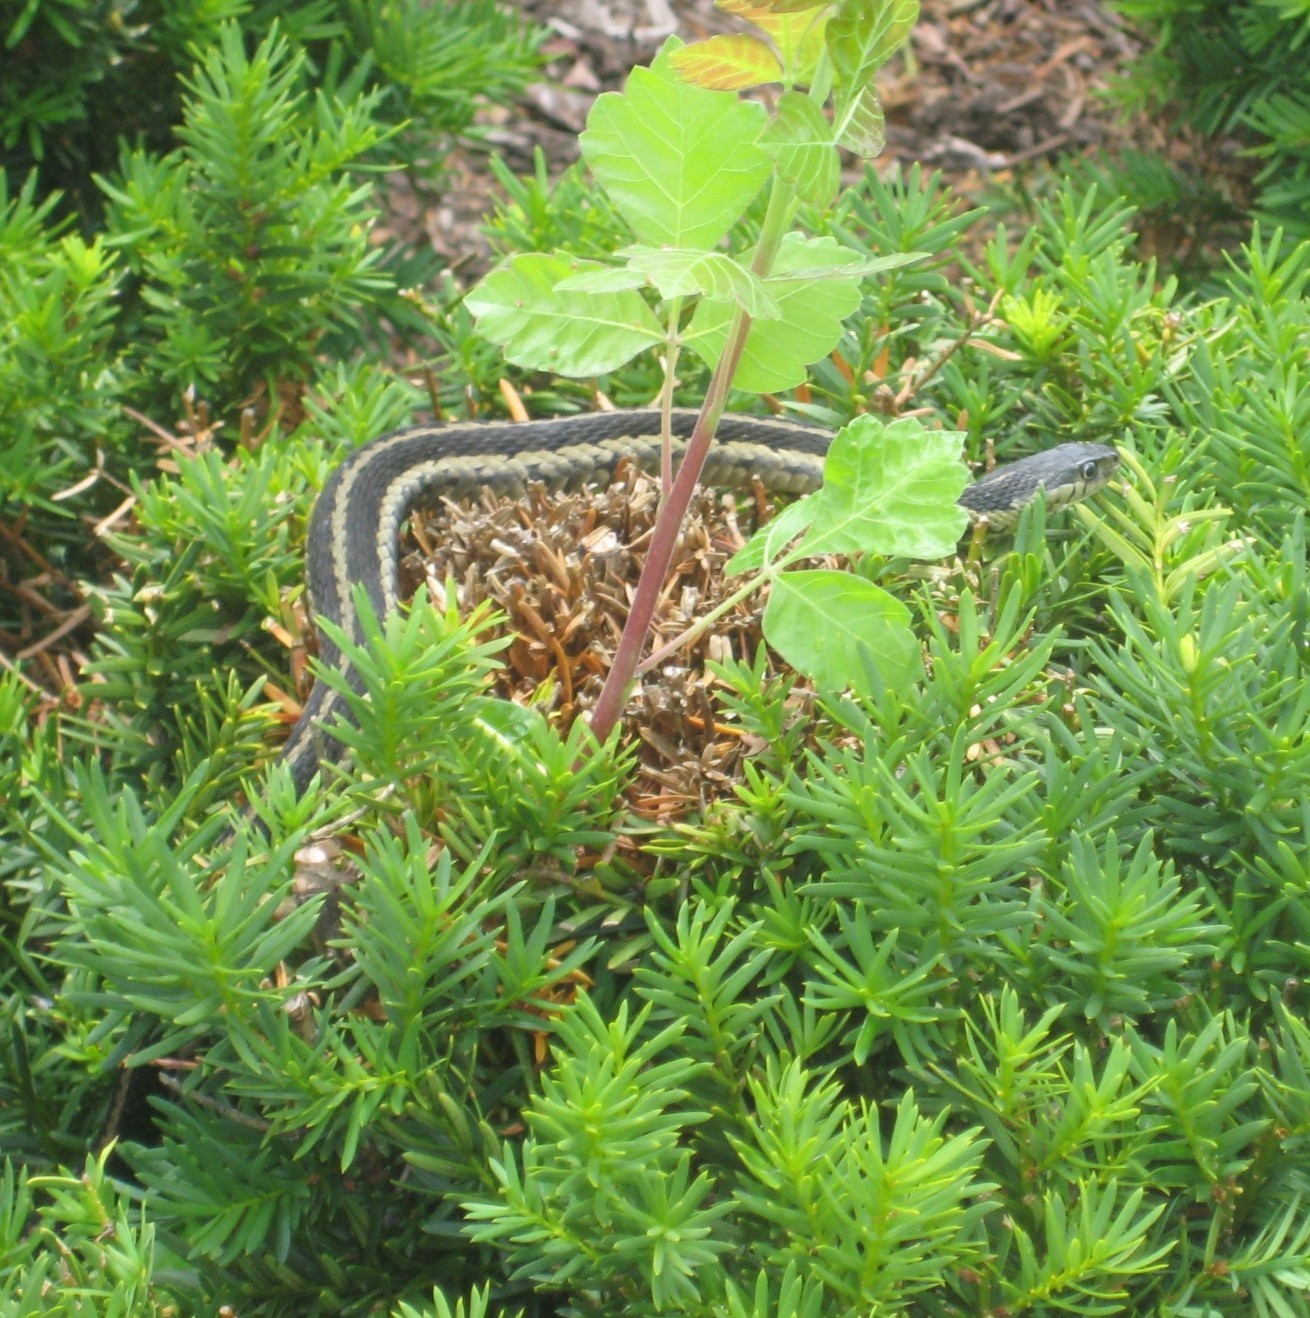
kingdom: Animalia
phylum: Chordata
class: Squamata
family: Colubridae
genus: Thamnophis
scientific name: Thamnophis sirtalis
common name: Common garter snake
